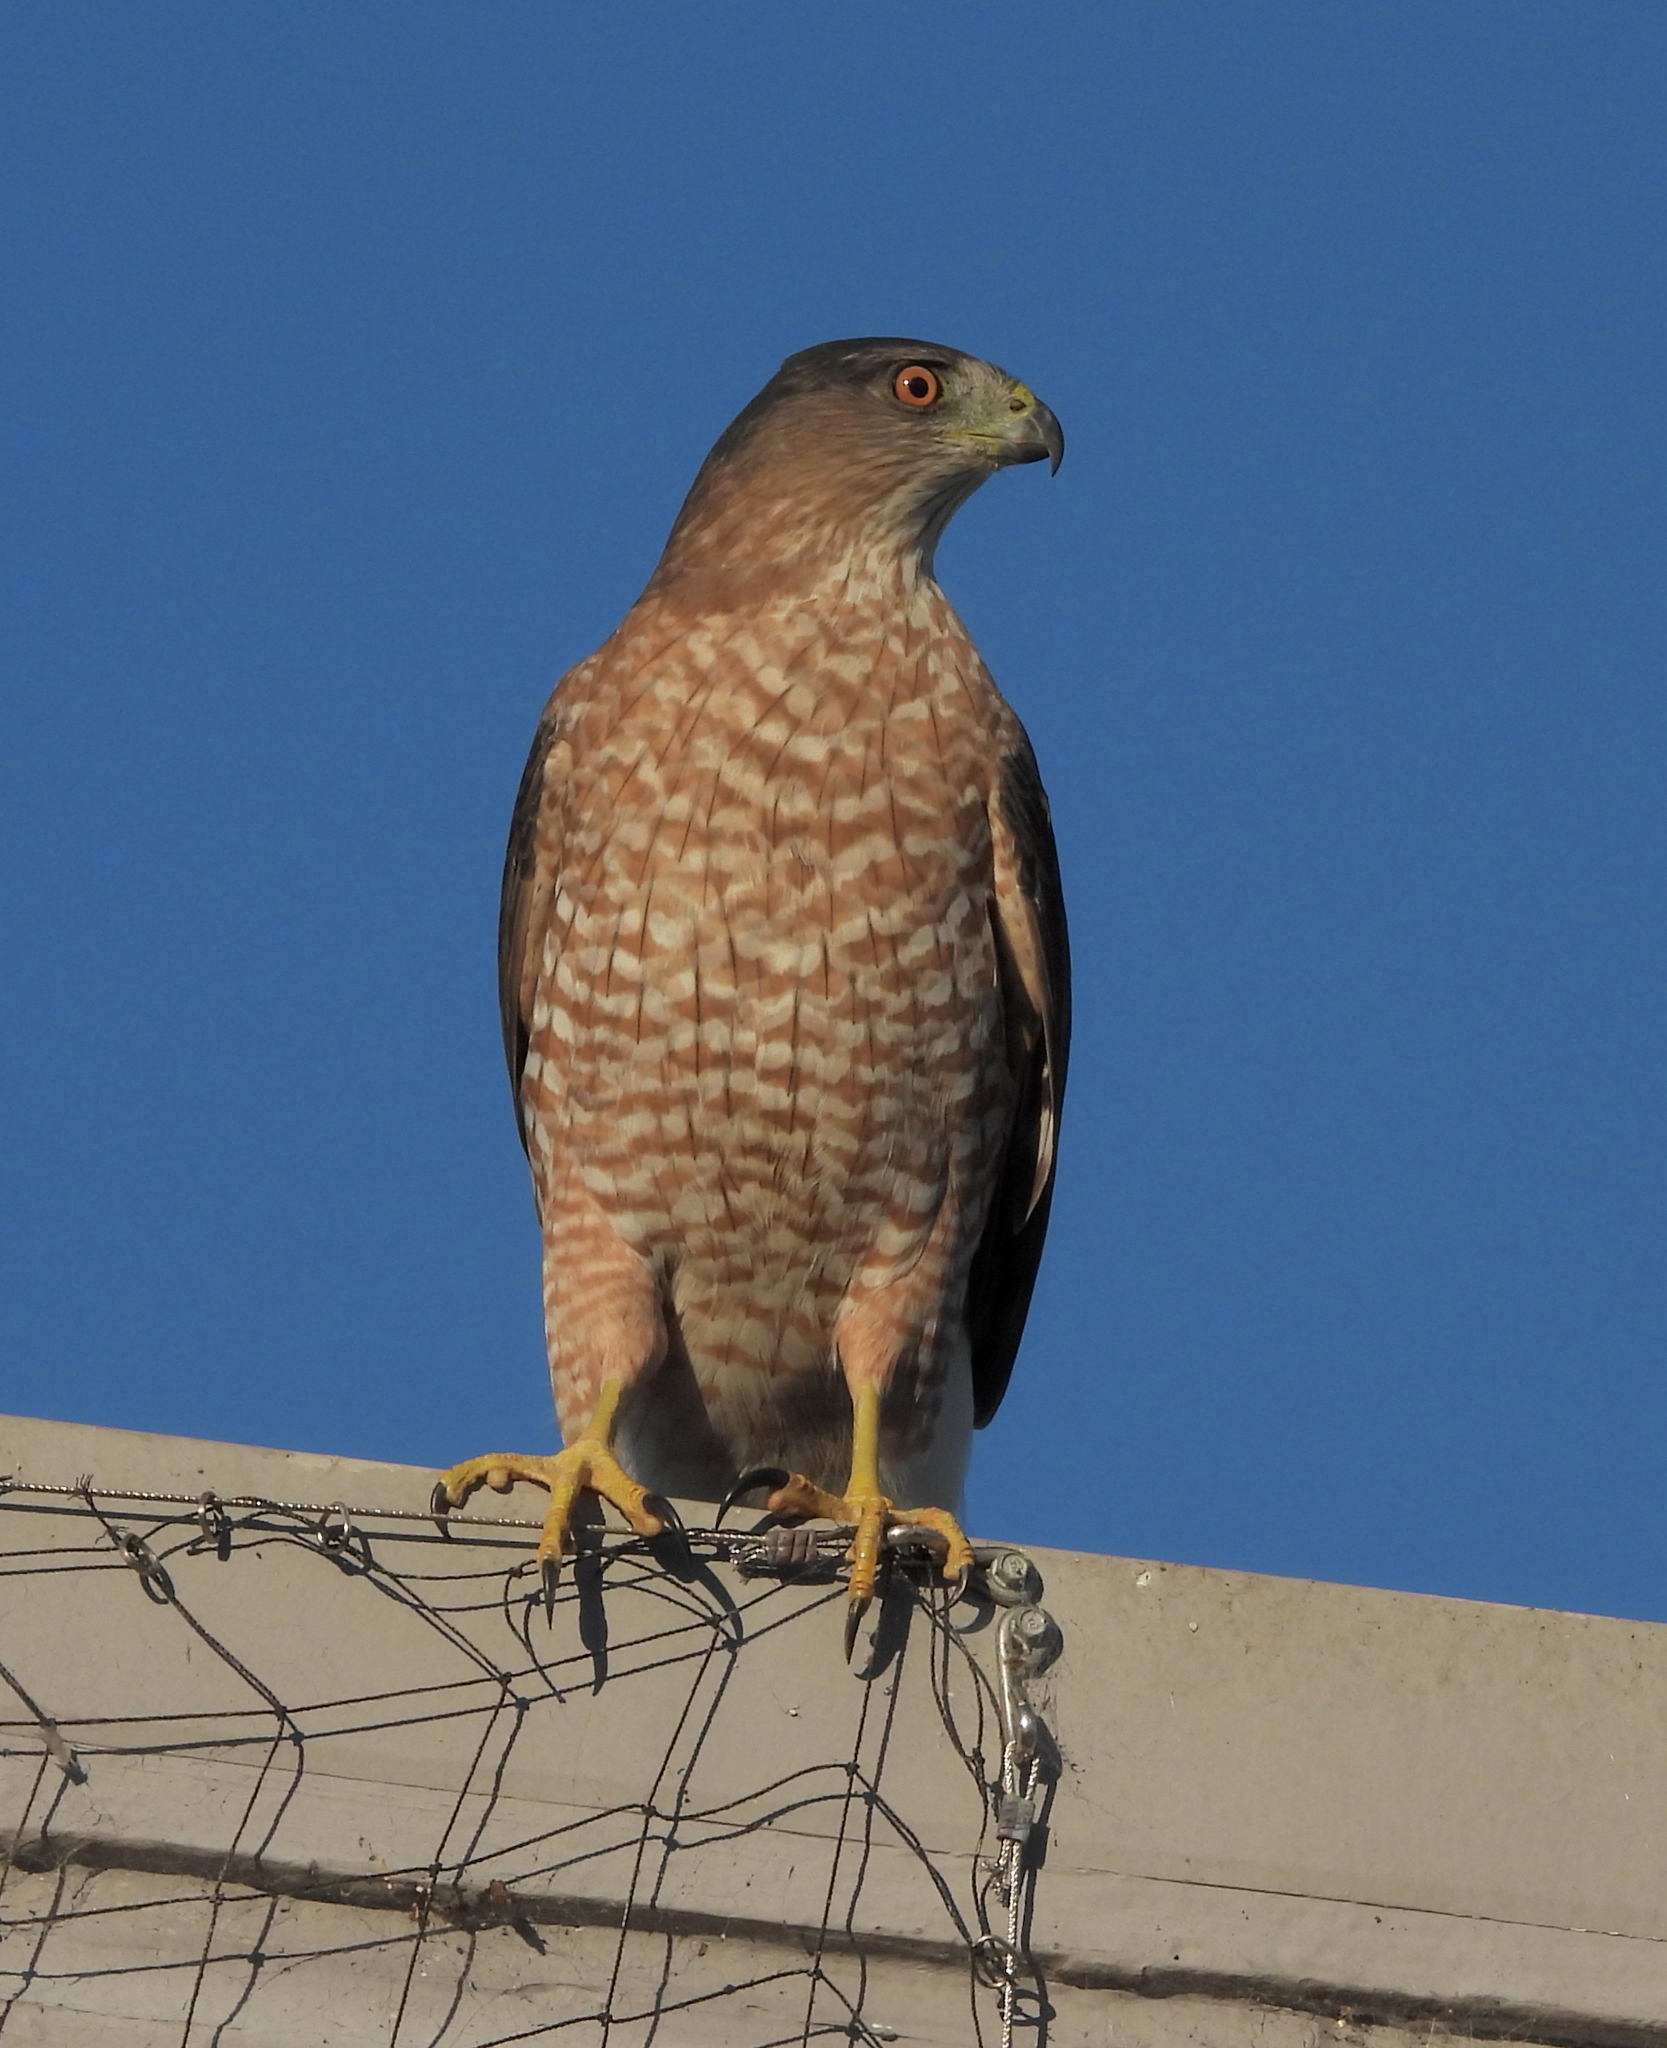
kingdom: Animalia
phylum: Chordata
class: Aves
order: Accipitriformes
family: Accipitridae
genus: Accipiter
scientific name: Accipiter cooperii
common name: Cooper's hawk
